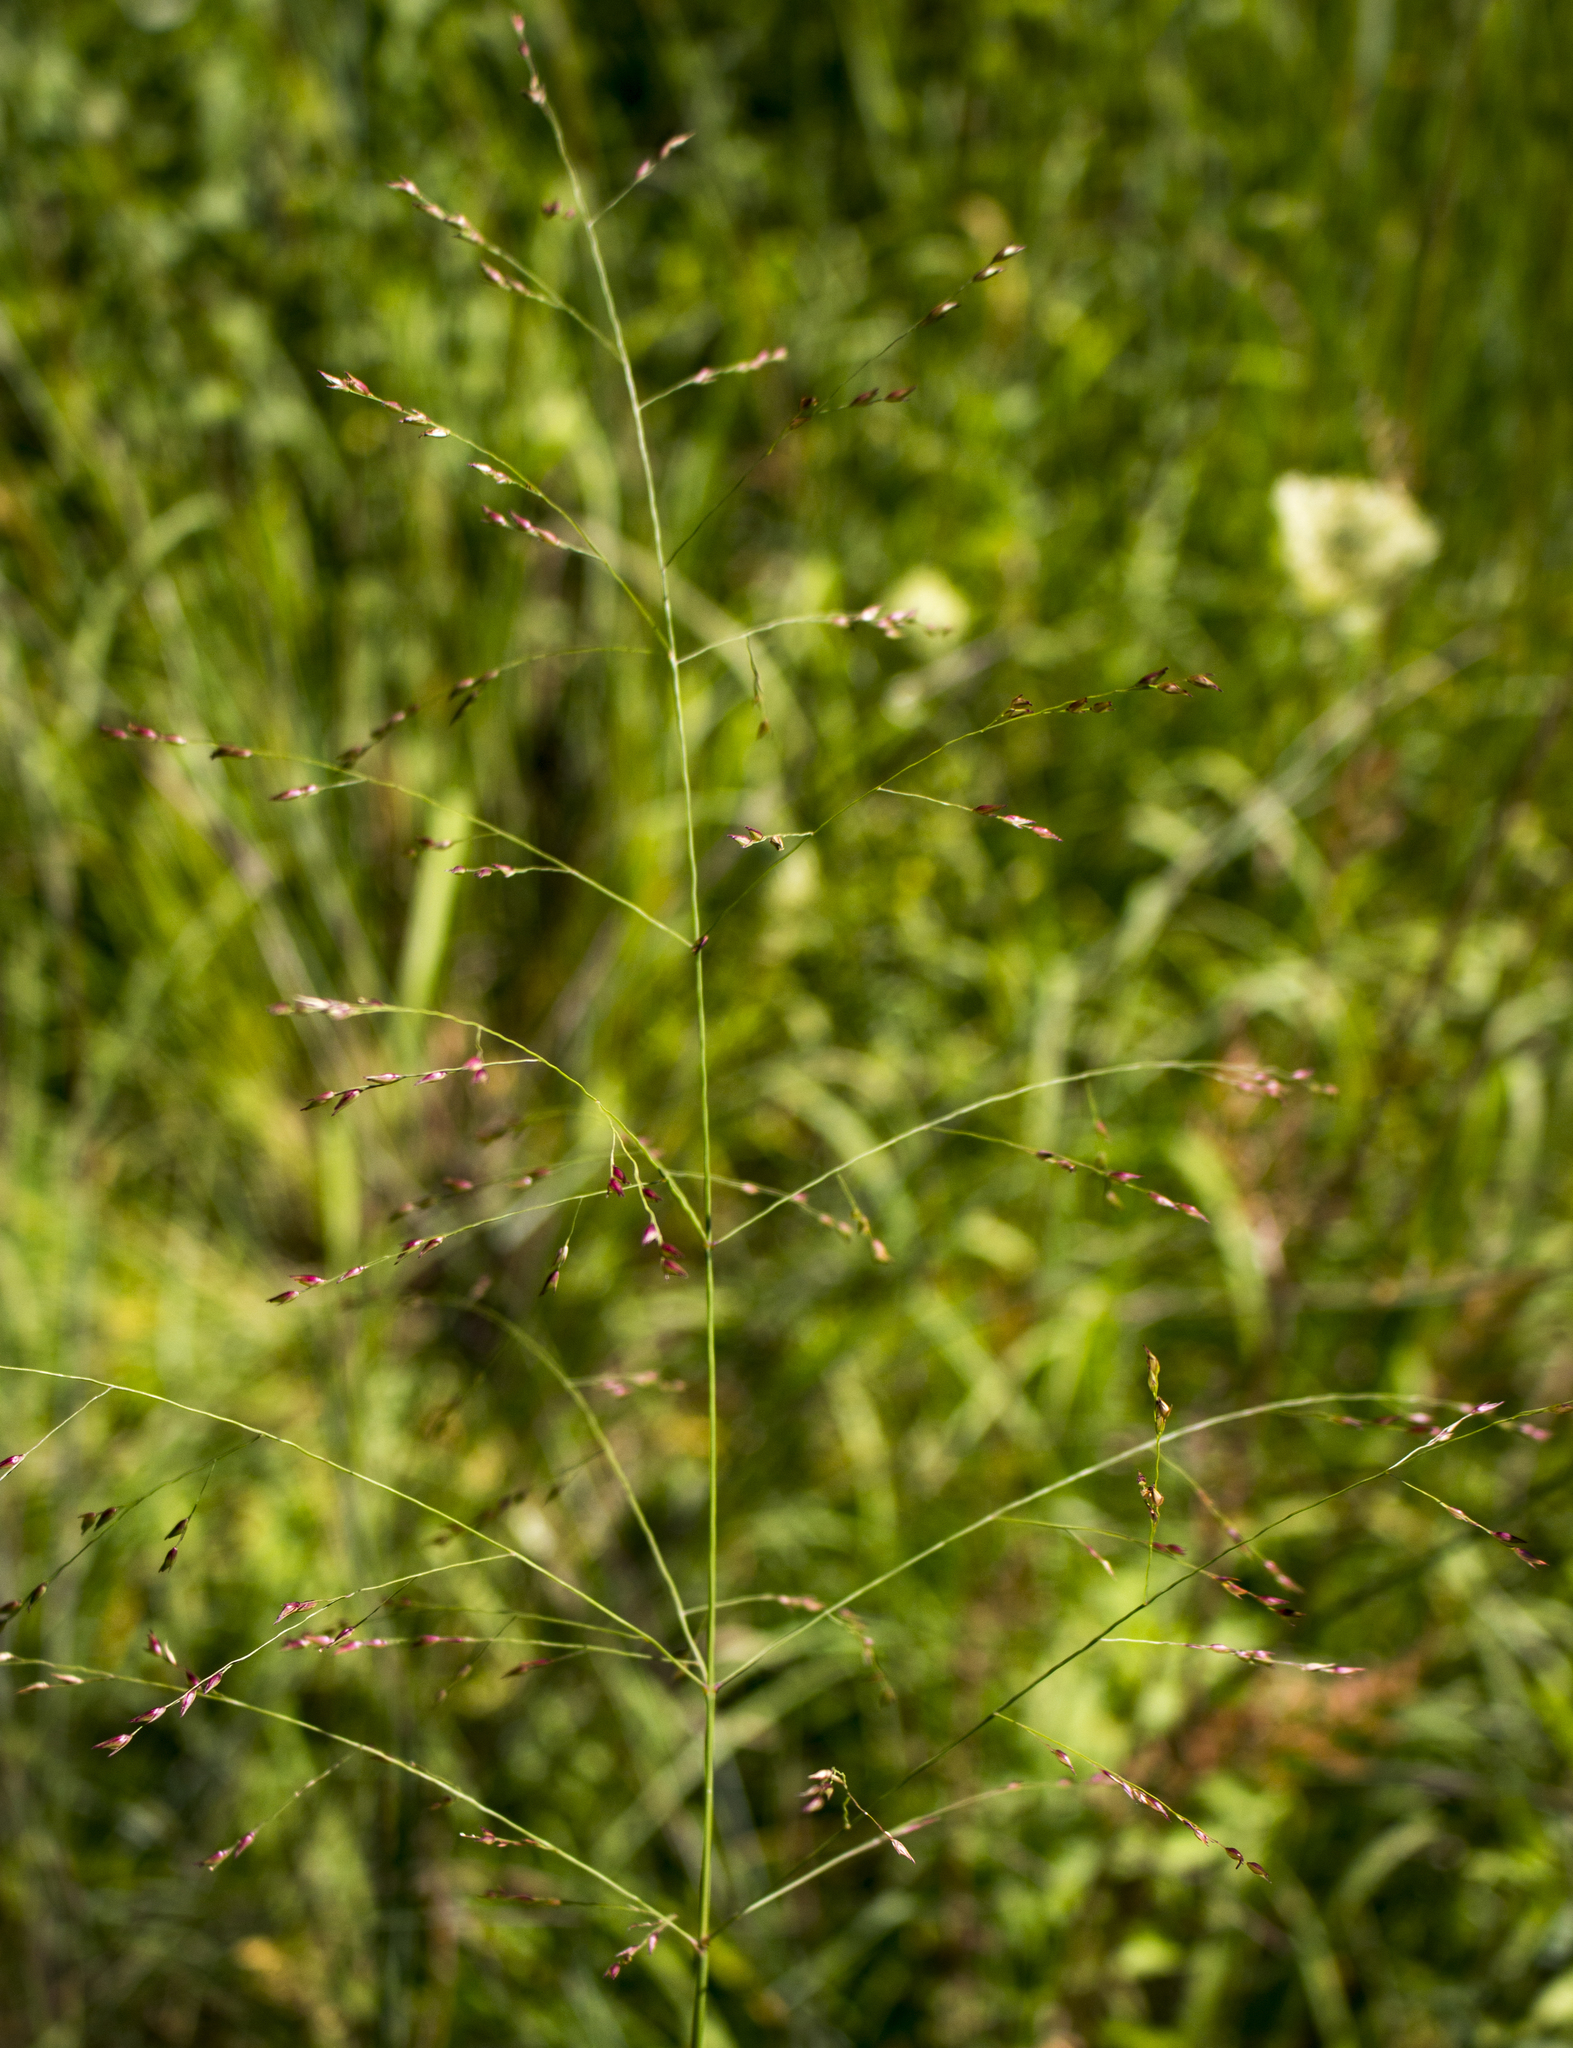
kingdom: Plantae
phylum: Tracheophyta
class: Liliopsida
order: Poales
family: Poaceae
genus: Panicum
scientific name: Panicum virgatum
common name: Switchgrass
